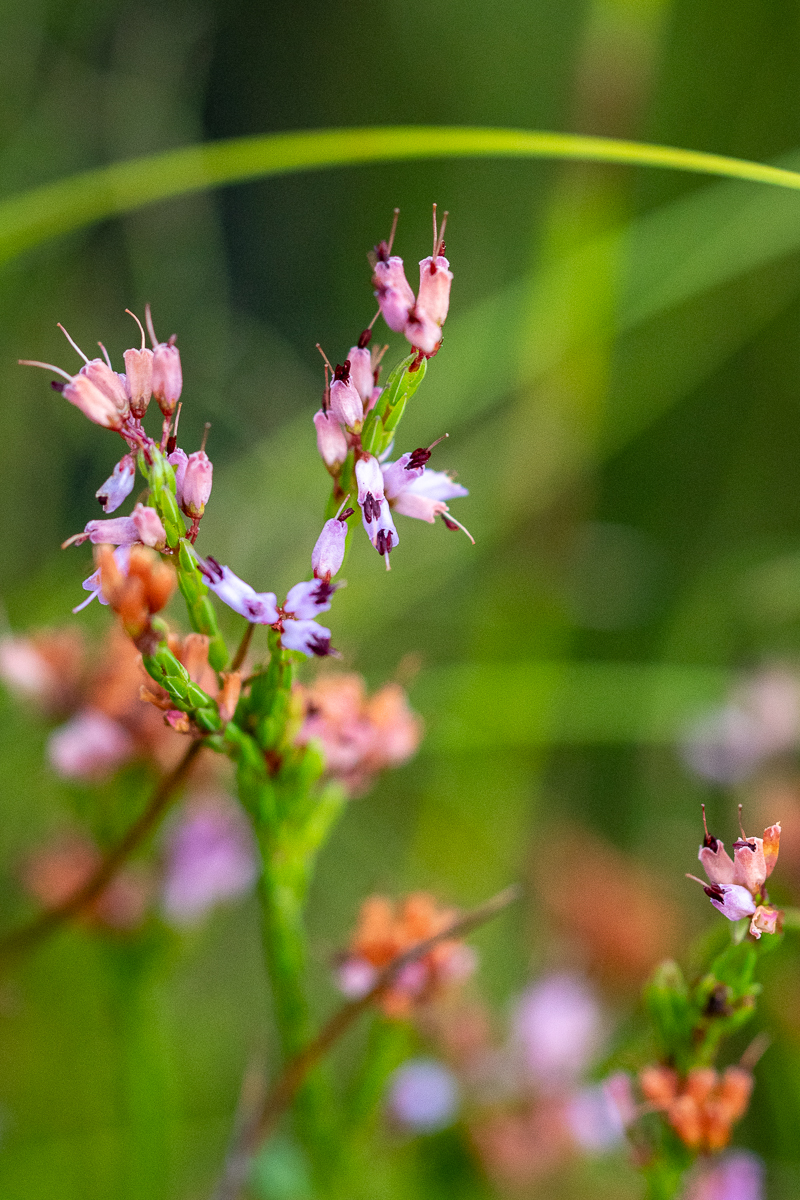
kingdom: Plantae
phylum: Tracheophyta
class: Magnoliopsida
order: Ericales
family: Ericaceae
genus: Erica
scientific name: Erica equisetifolia
